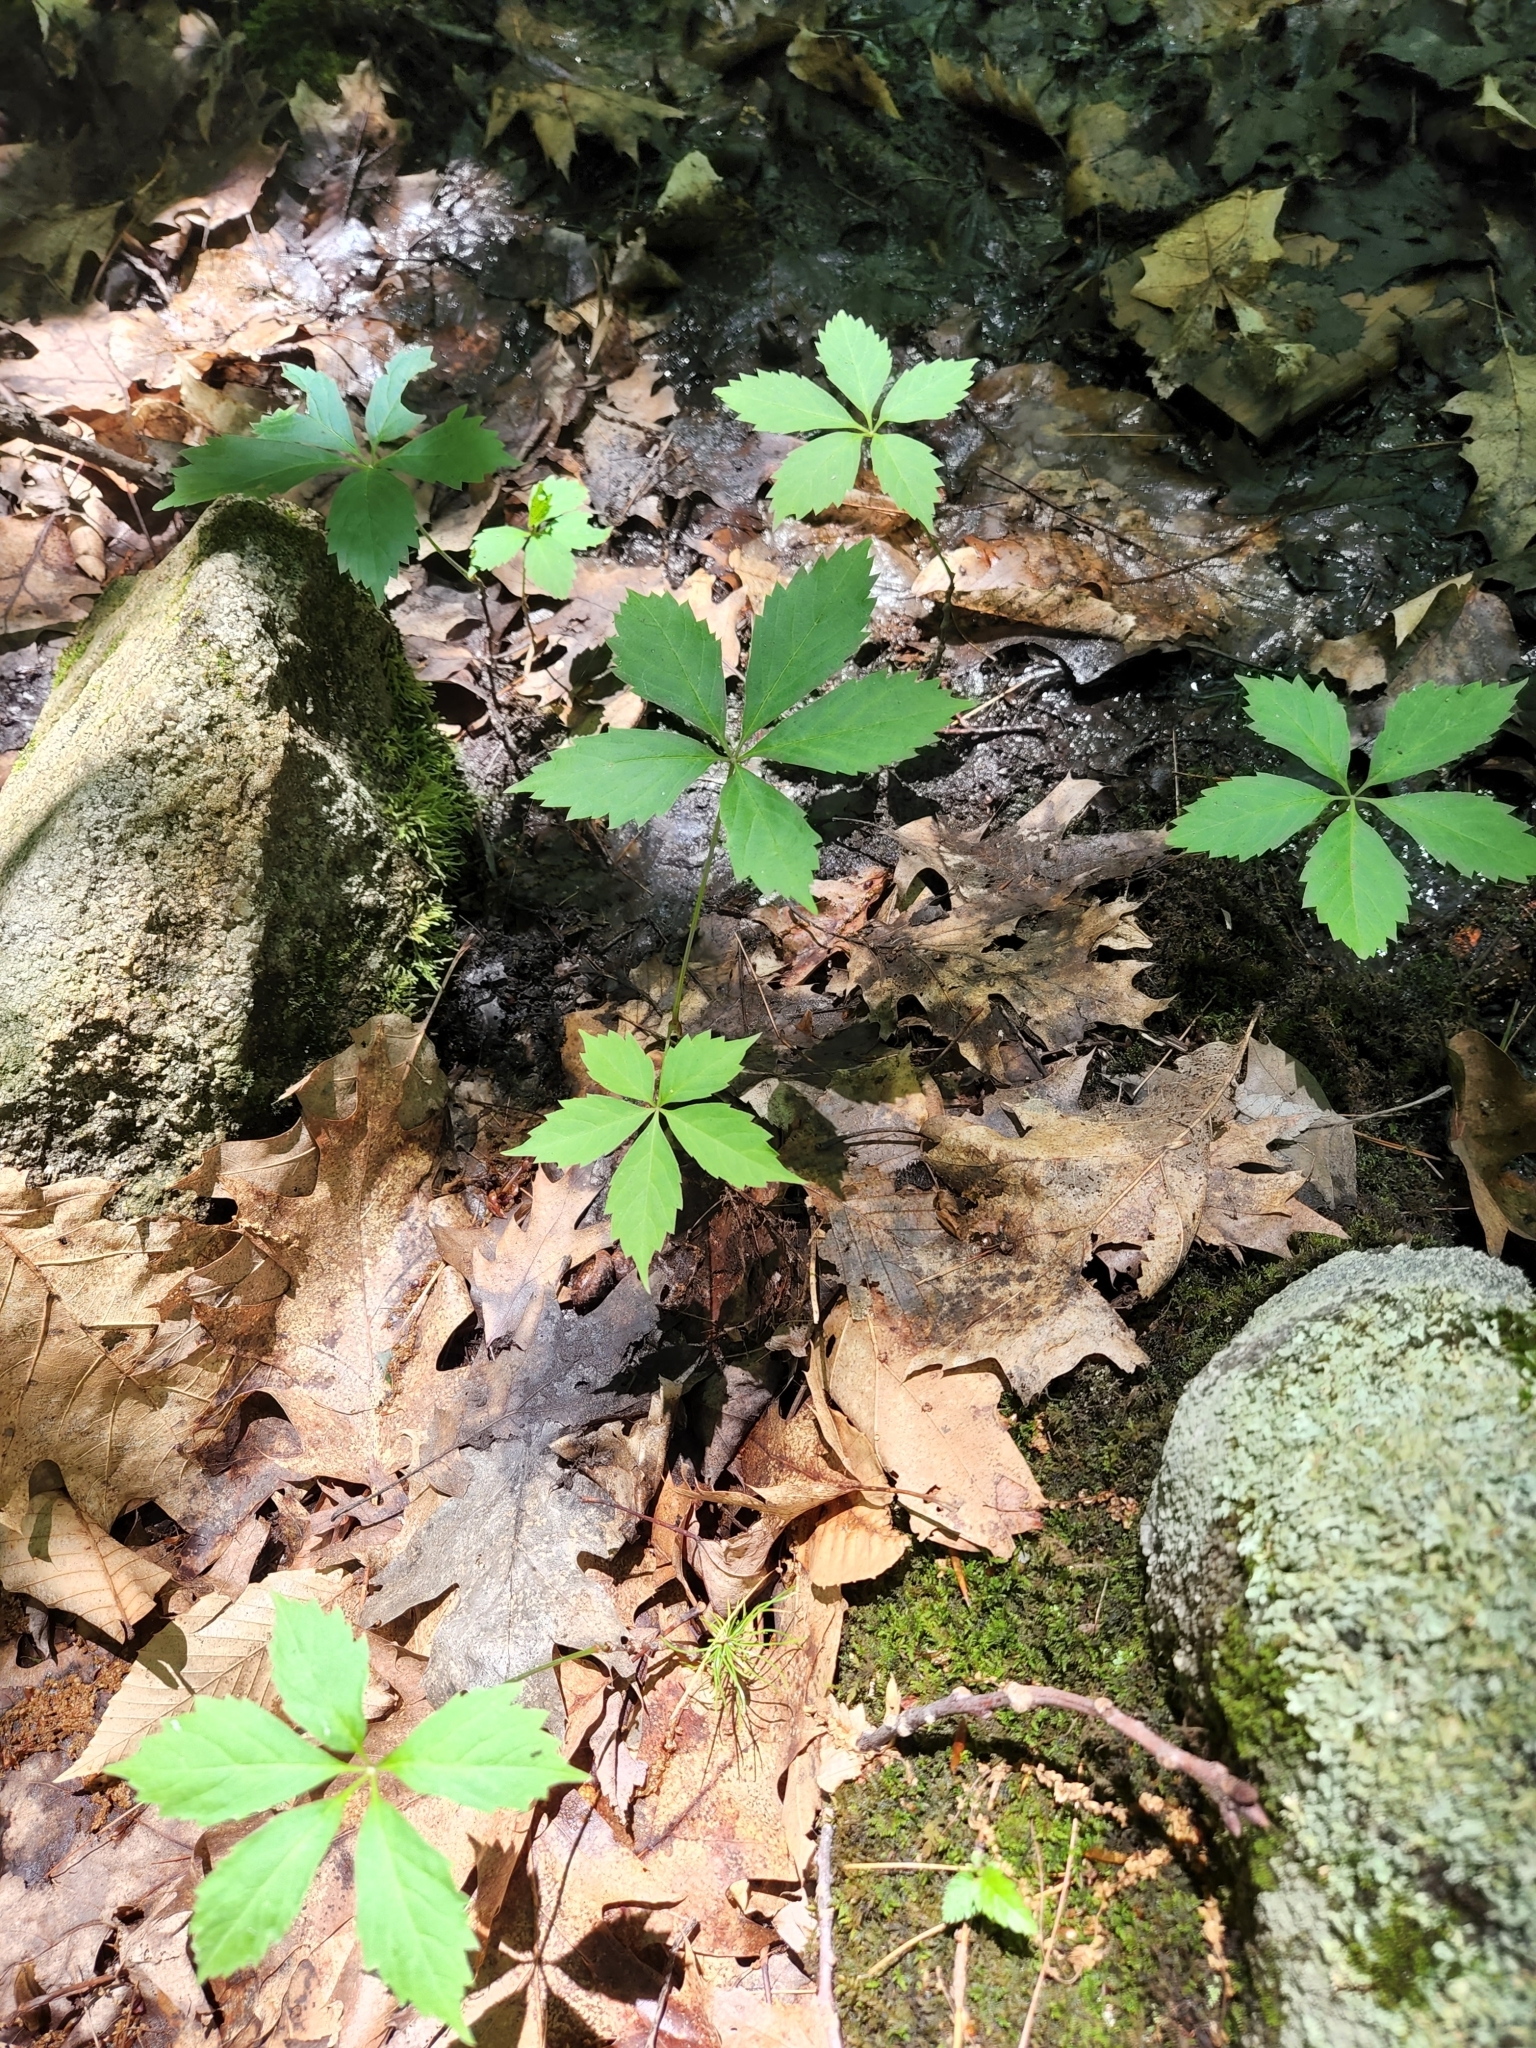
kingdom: Plantae
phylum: Tracheophyta
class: Magnoliopsida
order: Vitales
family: Vitaceae
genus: Parthenocissus
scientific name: Parthenocissus quinquefolia
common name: Virginia-creeper
